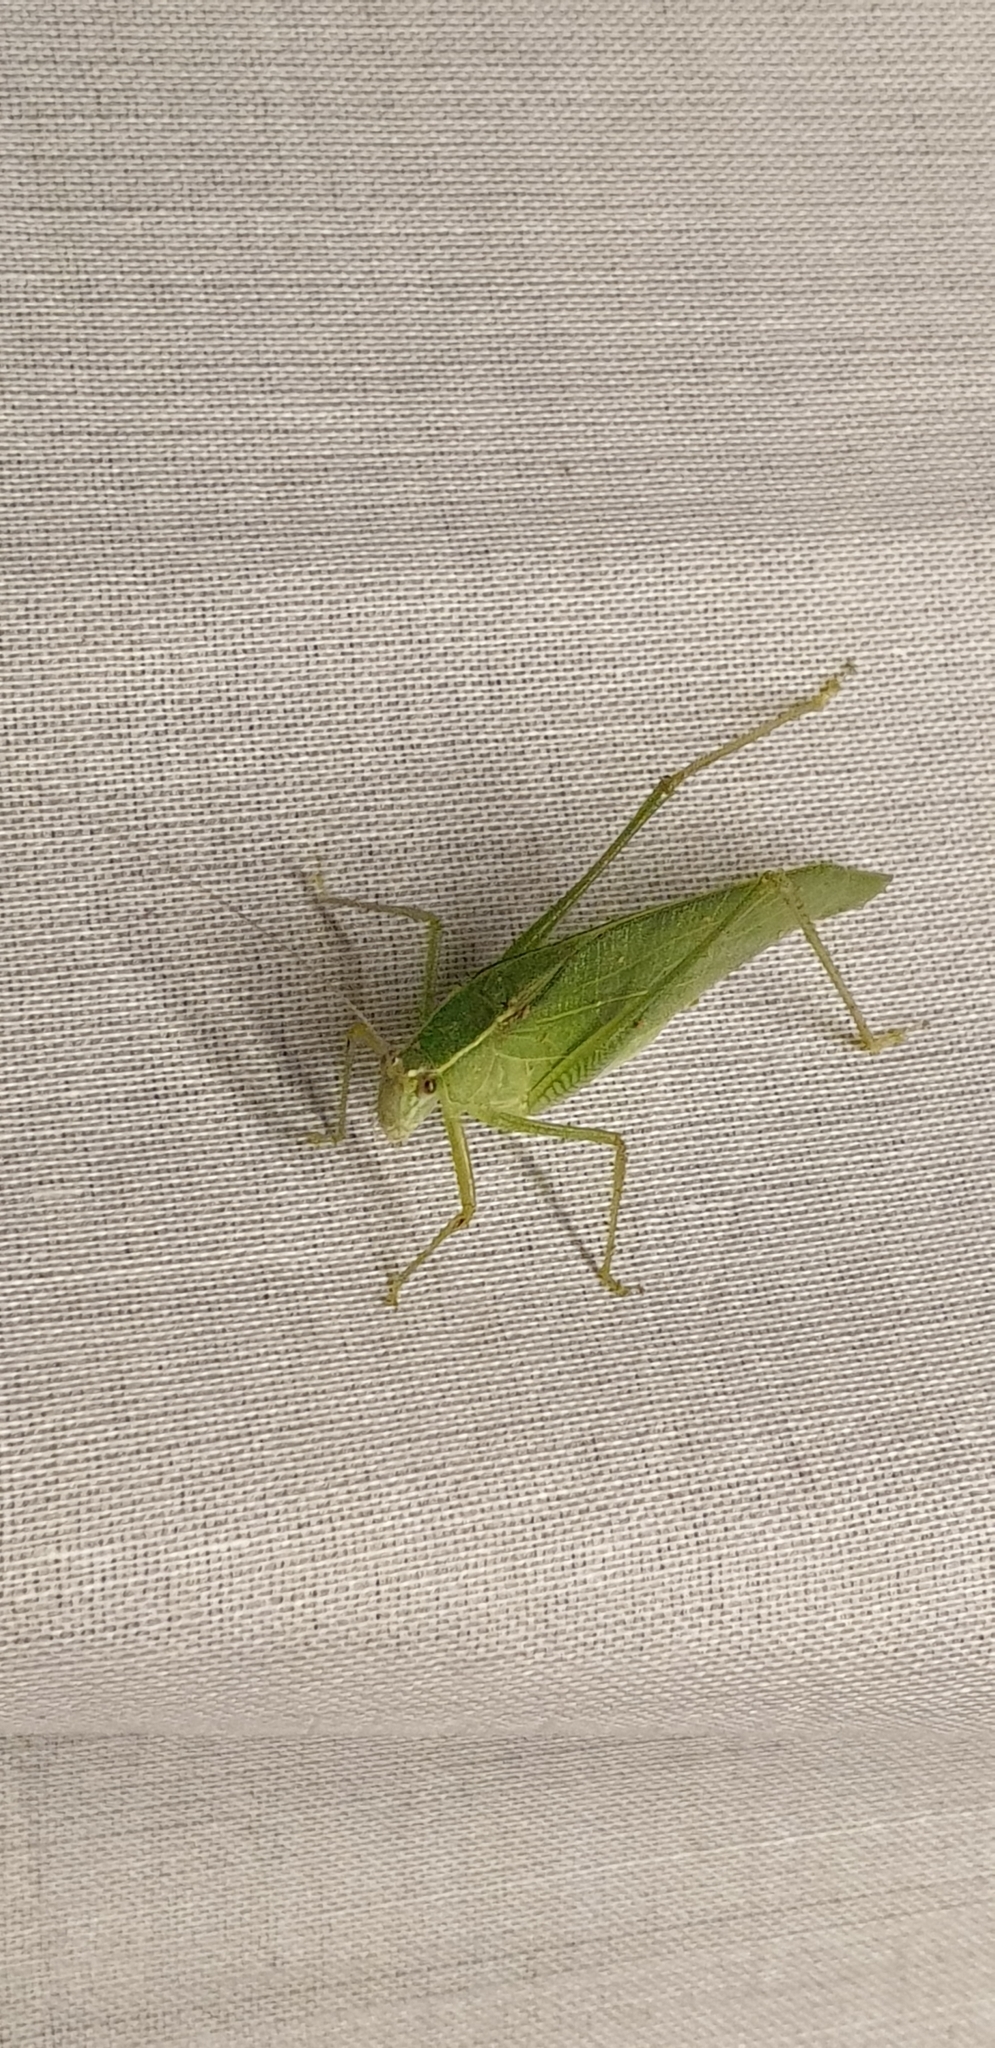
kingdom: Animalia
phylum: Arthropoda
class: Insecta
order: Orthoptera
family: Tettigoniidae
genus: Trigonocorypha
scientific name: Trigonocorypha unicolor
